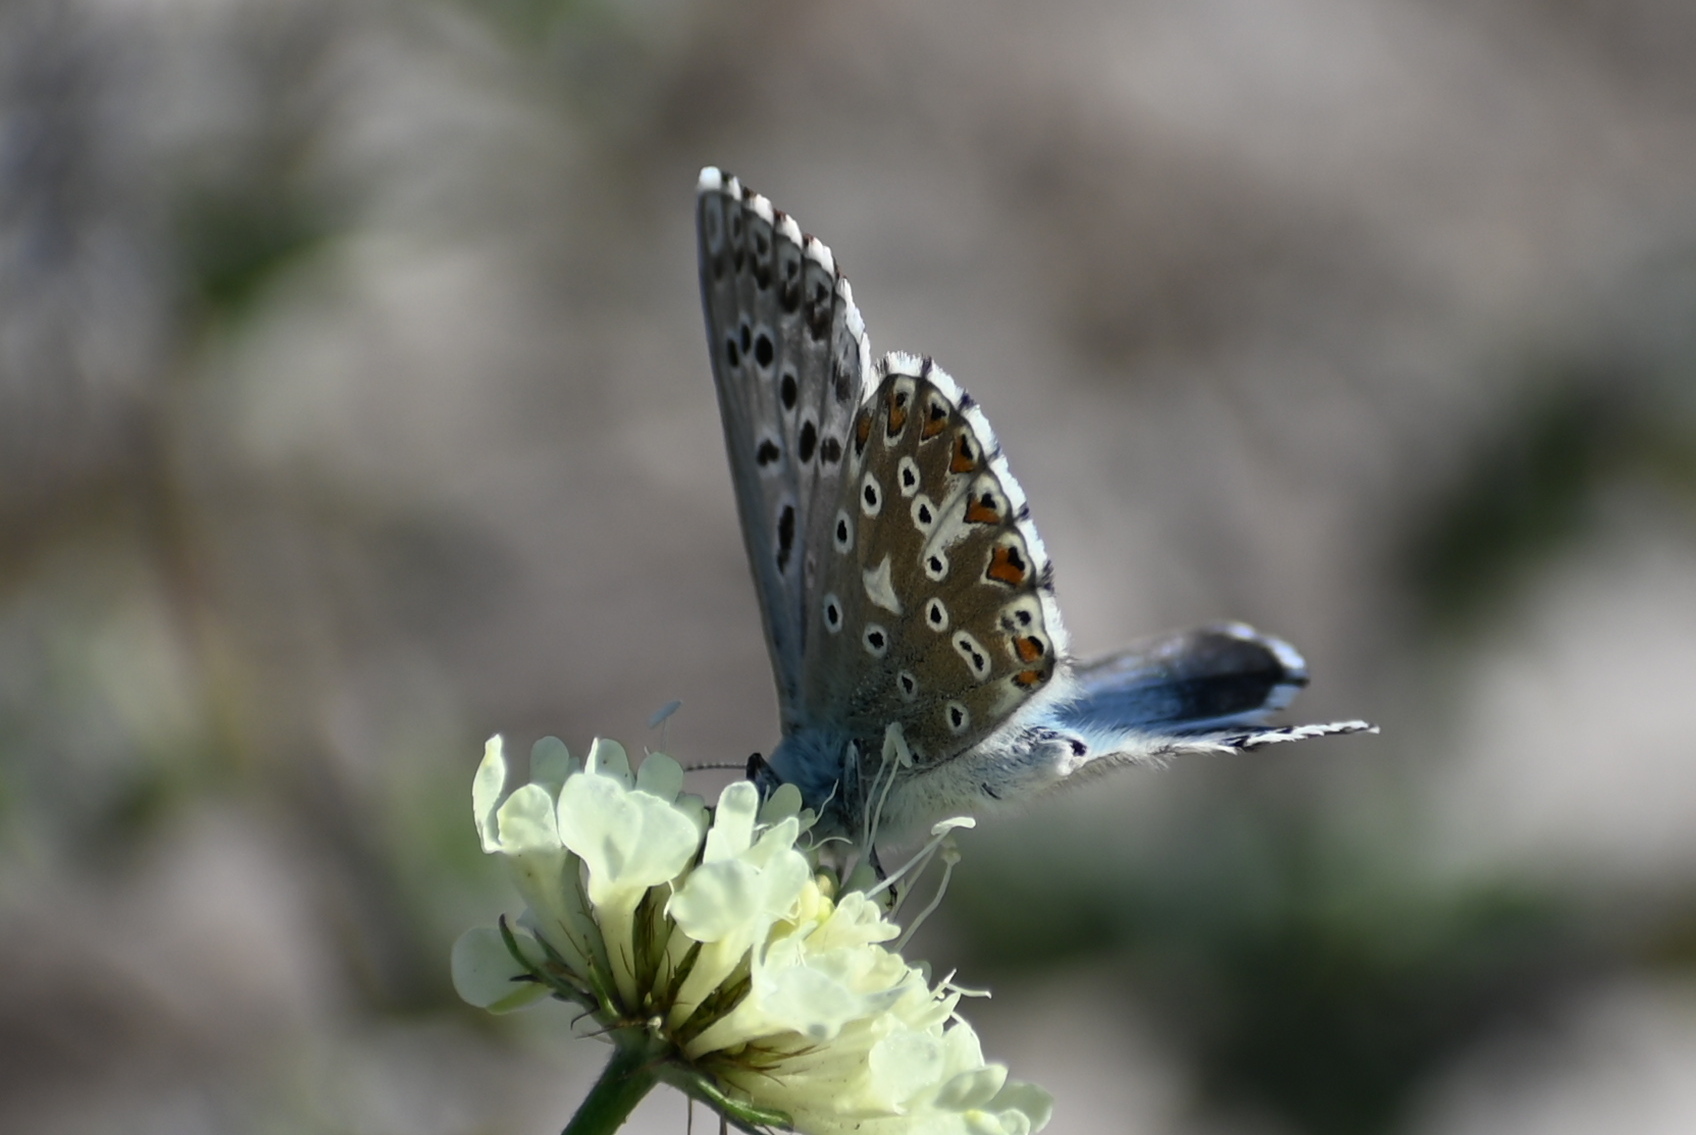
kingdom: Animalia
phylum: Arthropoda
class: Insecta
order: Lepidoptera
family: Lycaenidae
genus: Lysandra
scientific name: Lysandra coridon
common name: Chalkhill blue
